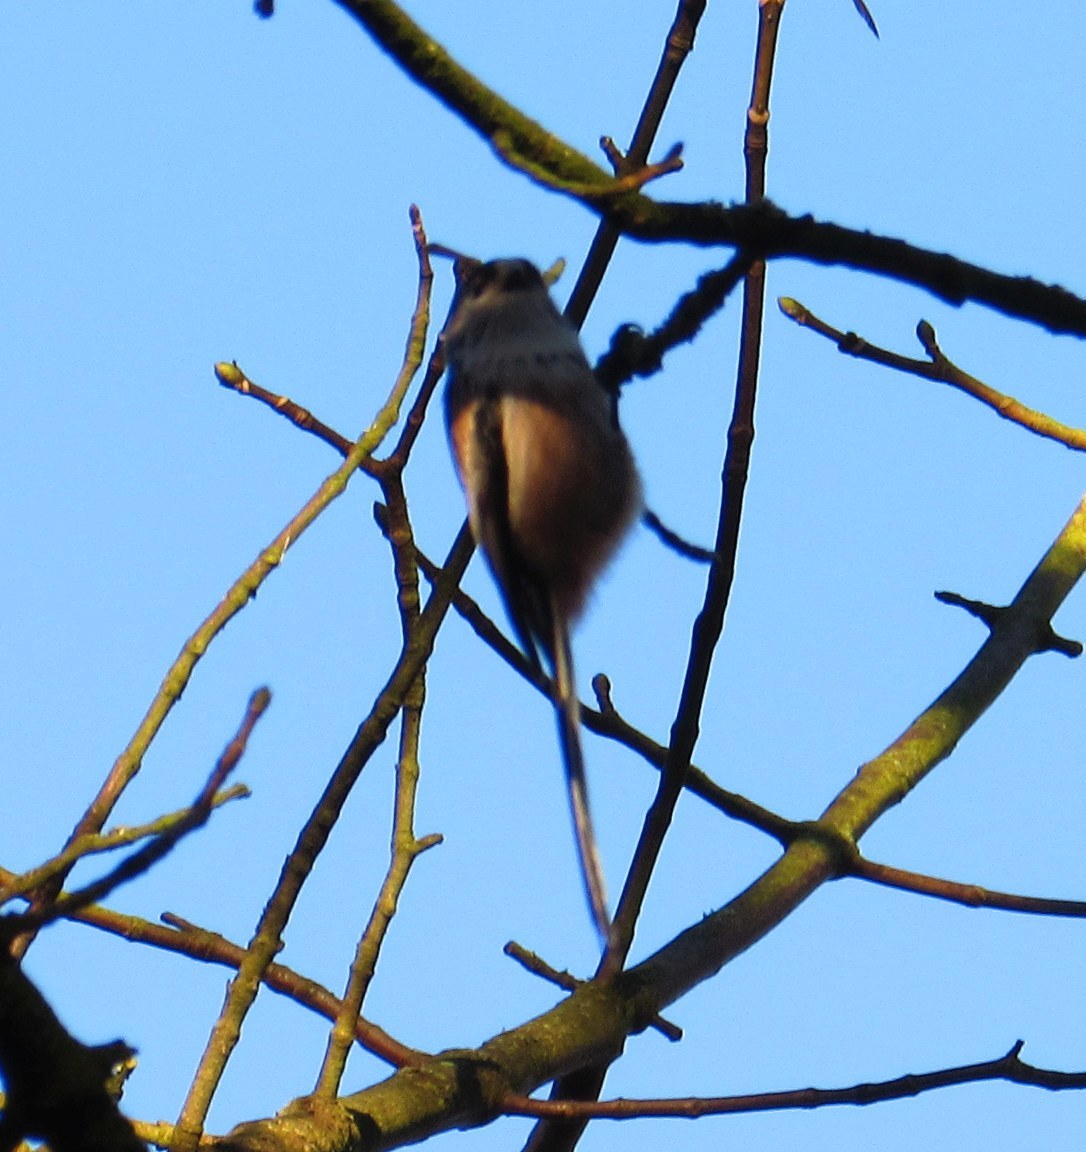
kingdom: Animalia
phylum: Chordata
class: Aves
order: Passeriformes
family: Aegithalidae
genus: Aegithalos
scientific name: Aegithalos caudatus
